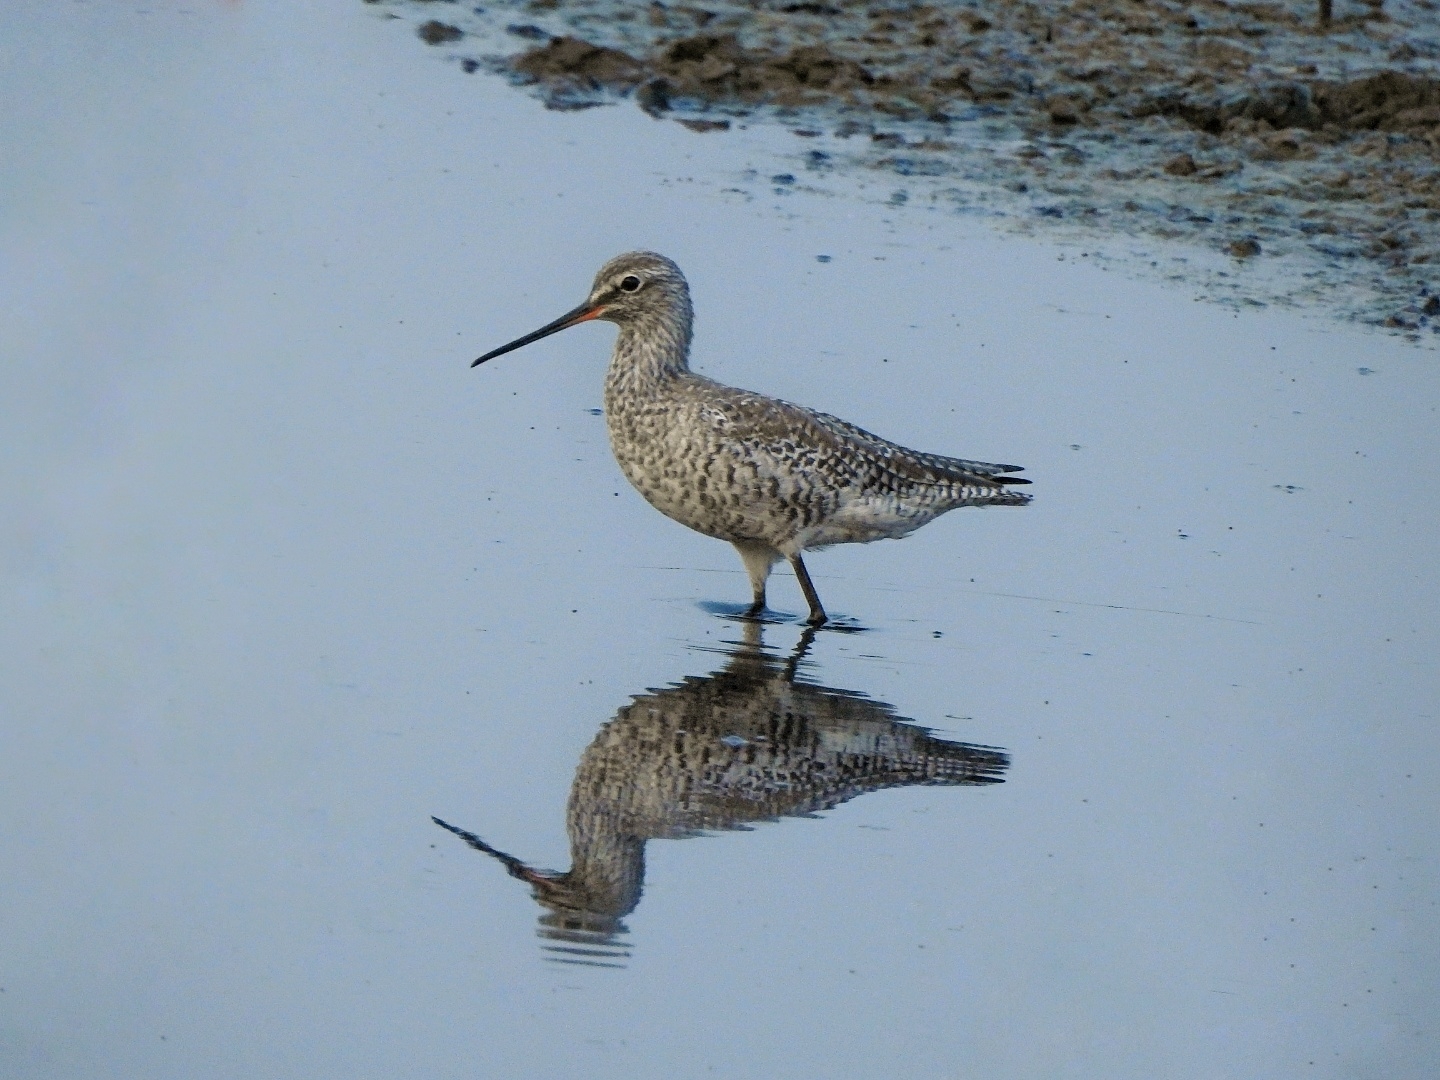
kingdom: Animalia
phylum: Chordata
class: Aves
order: Charadriiformes
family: Scolopacidae
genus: Tringa
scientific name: Tringa erythropus
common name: Spotted redshank
